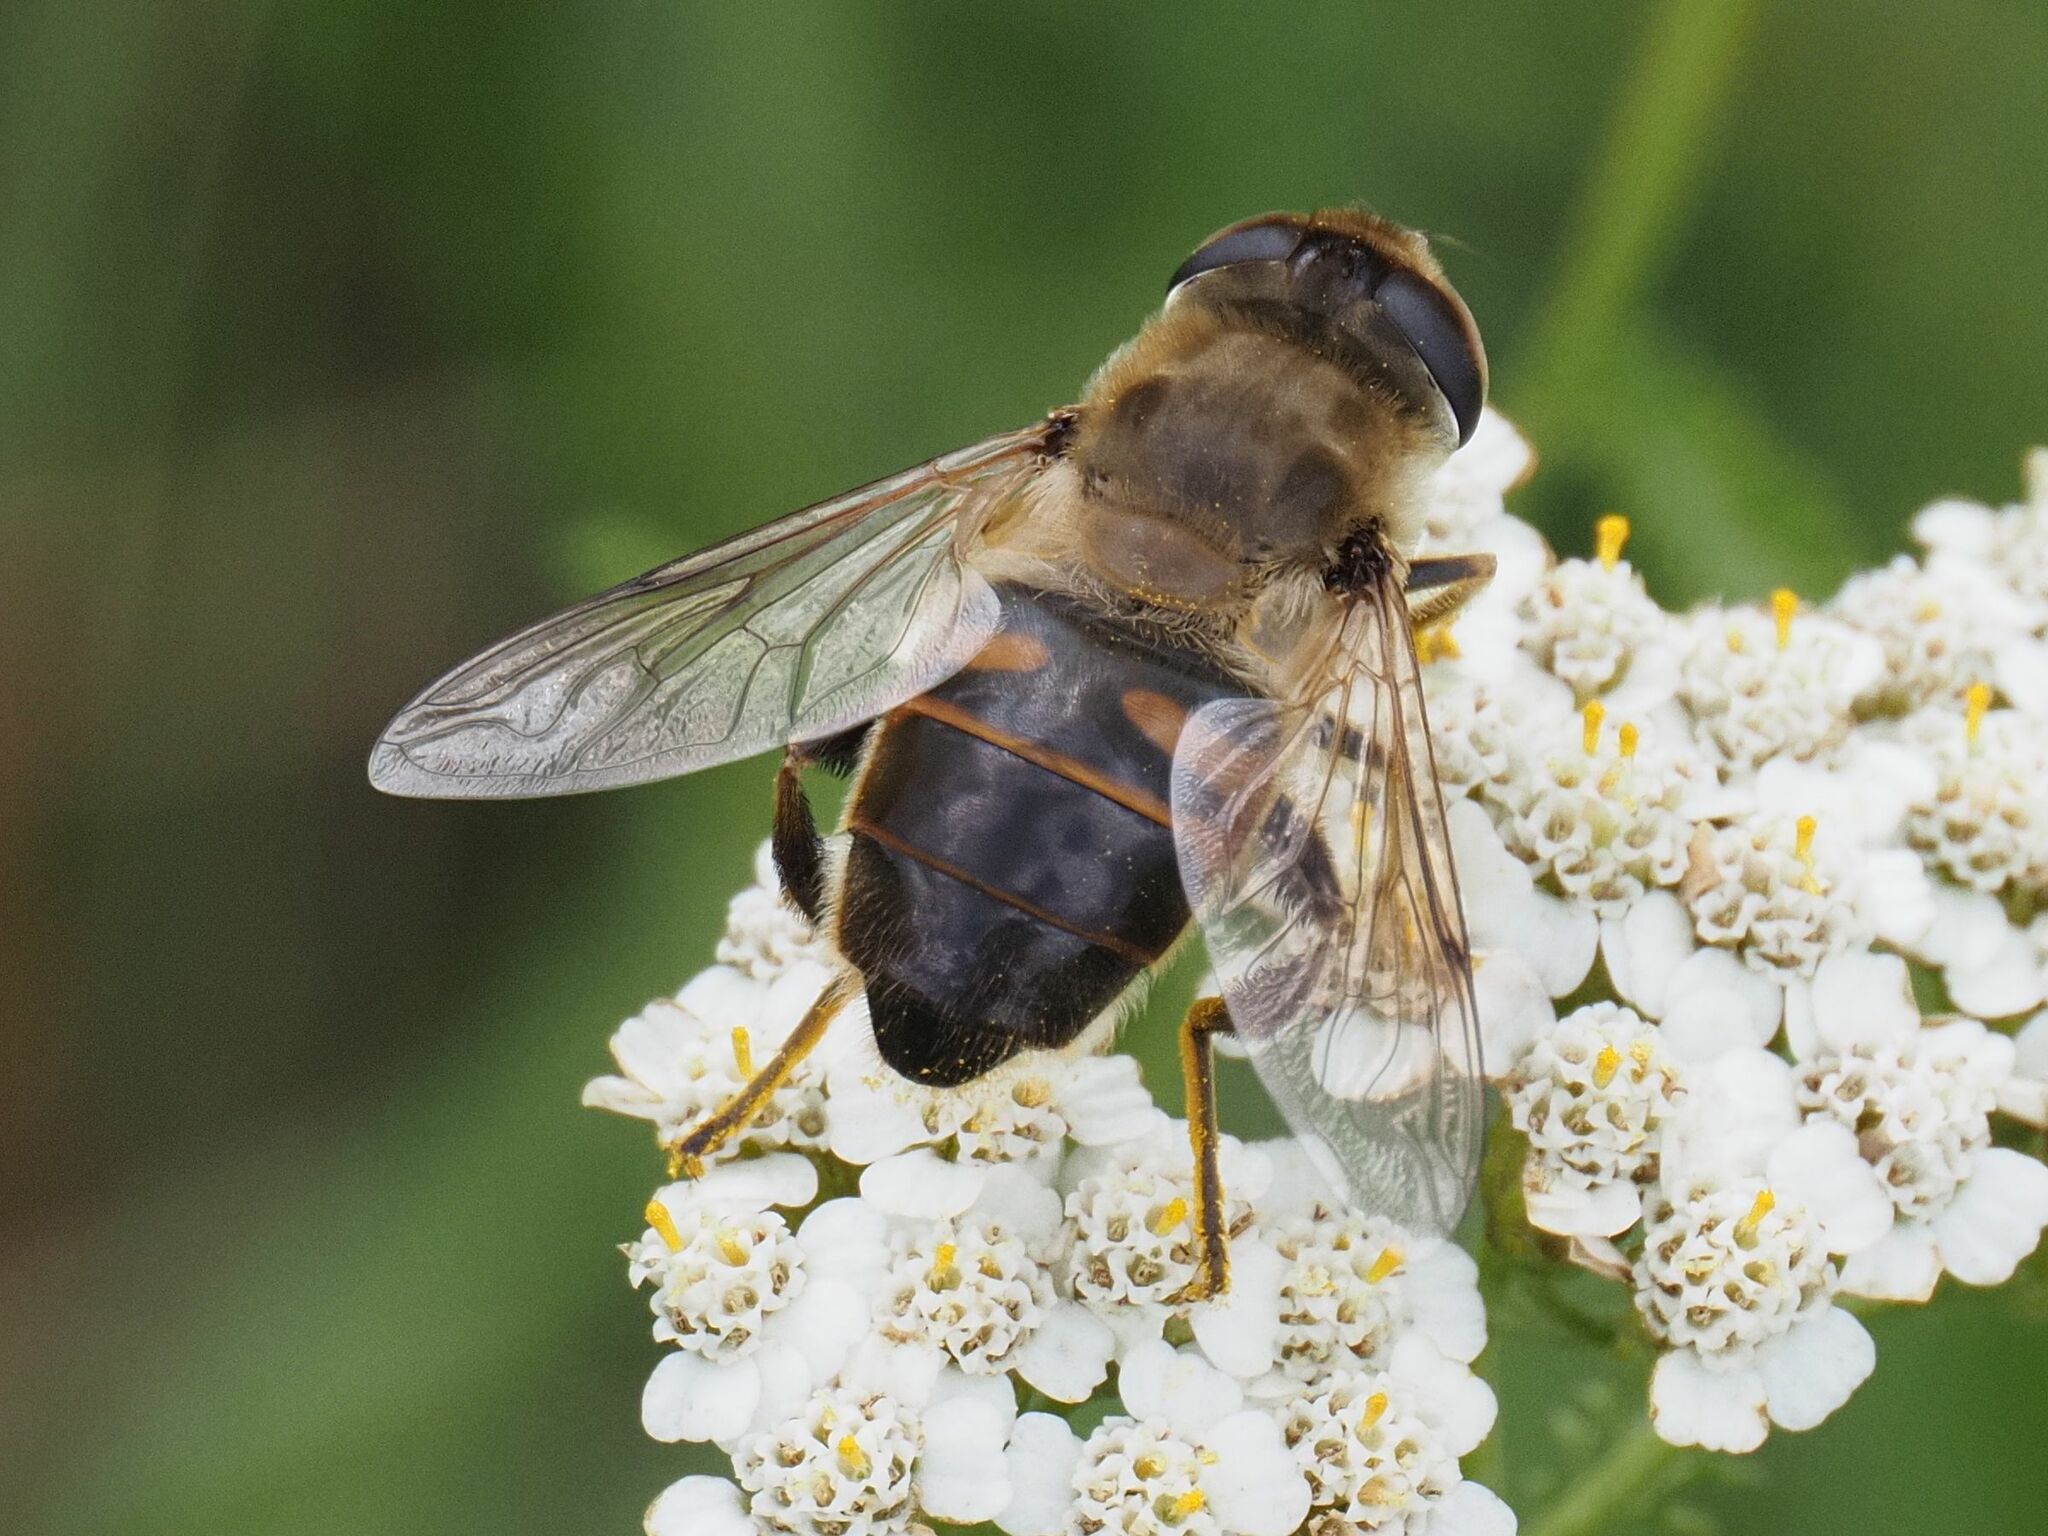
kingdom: Animalia
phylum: Arthropoda
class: Insecta
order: Diptera
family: Syrphidae
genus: Eristalis
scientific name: Eristalis tenax
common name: Drone fly
